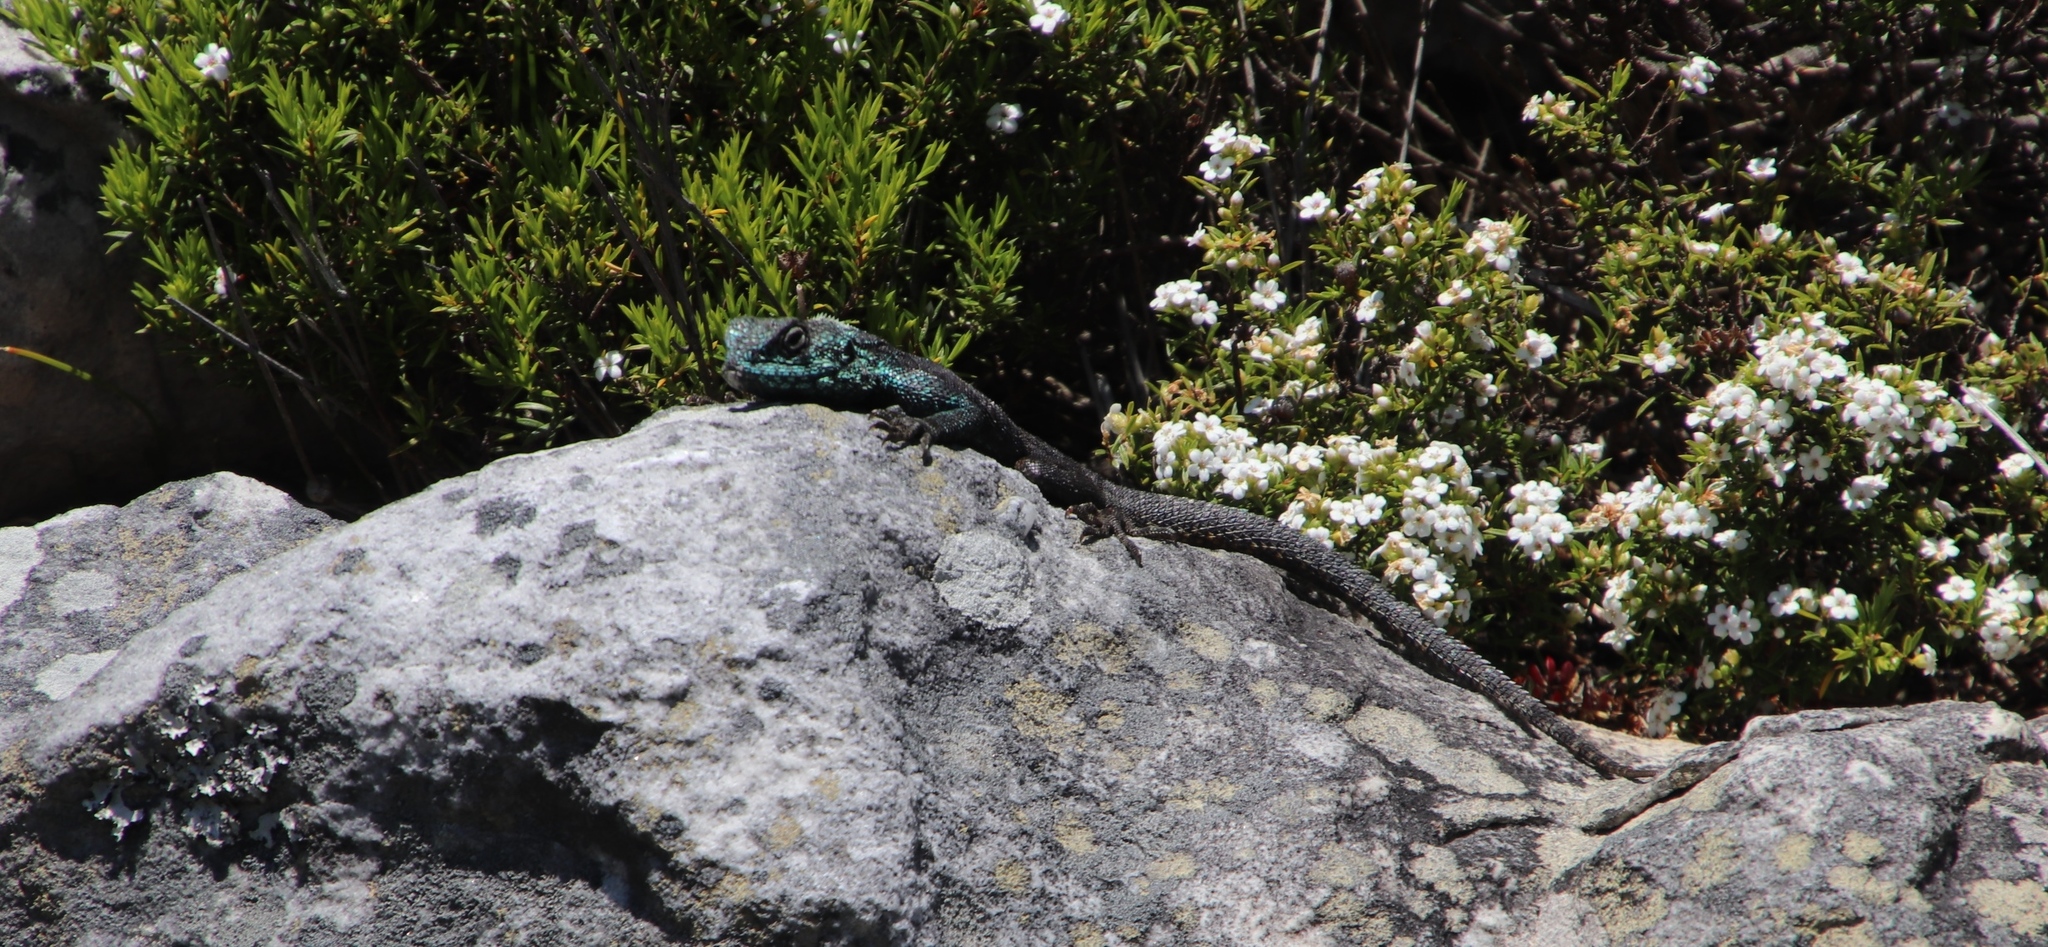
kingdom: Animalia
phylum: Chordata
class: Squamata
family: Agamidae
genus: Agama
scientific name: Agama atra
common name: Southern african rock agama
